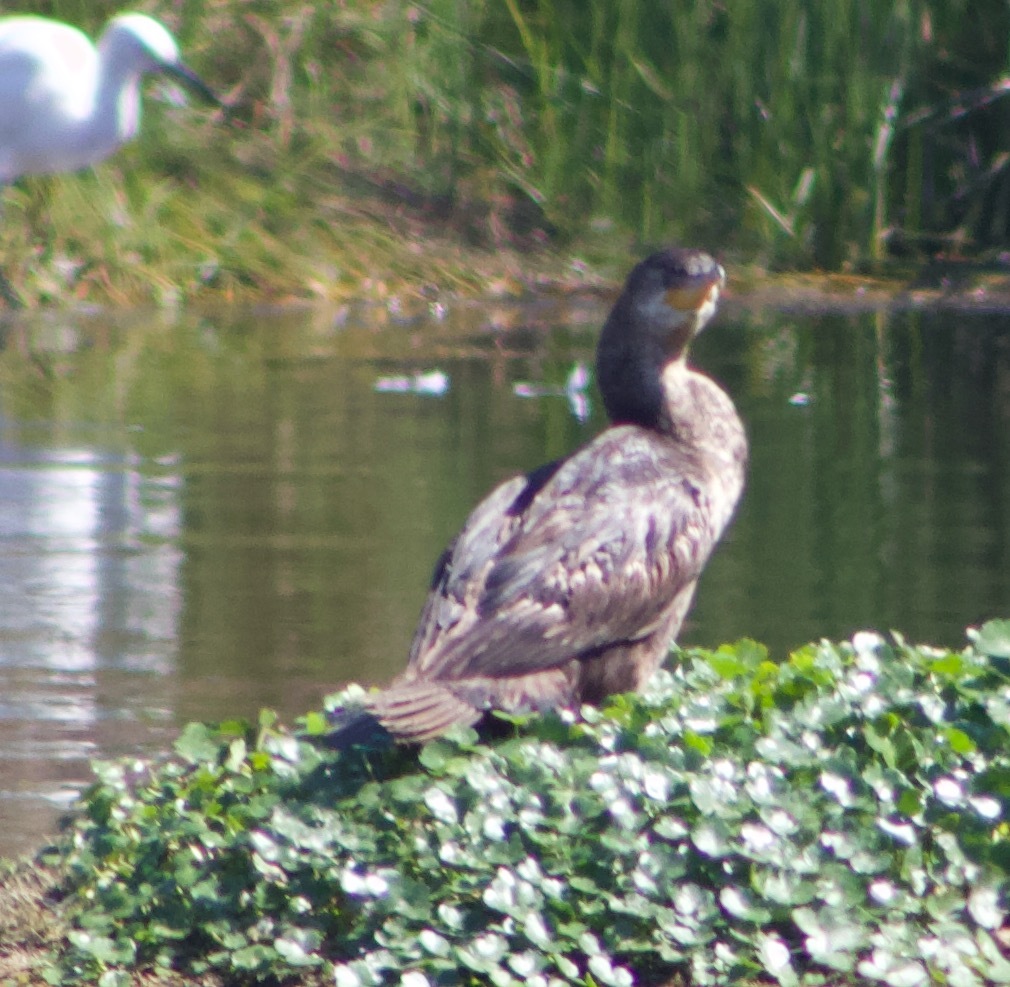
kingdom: Animalia
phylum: Chordata
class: Aves
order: Suliformes
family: Phalacrocoracidae
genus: Phalacrocorax
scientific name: Phalacrocorax brasilianus
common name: Neotropic cormorant
